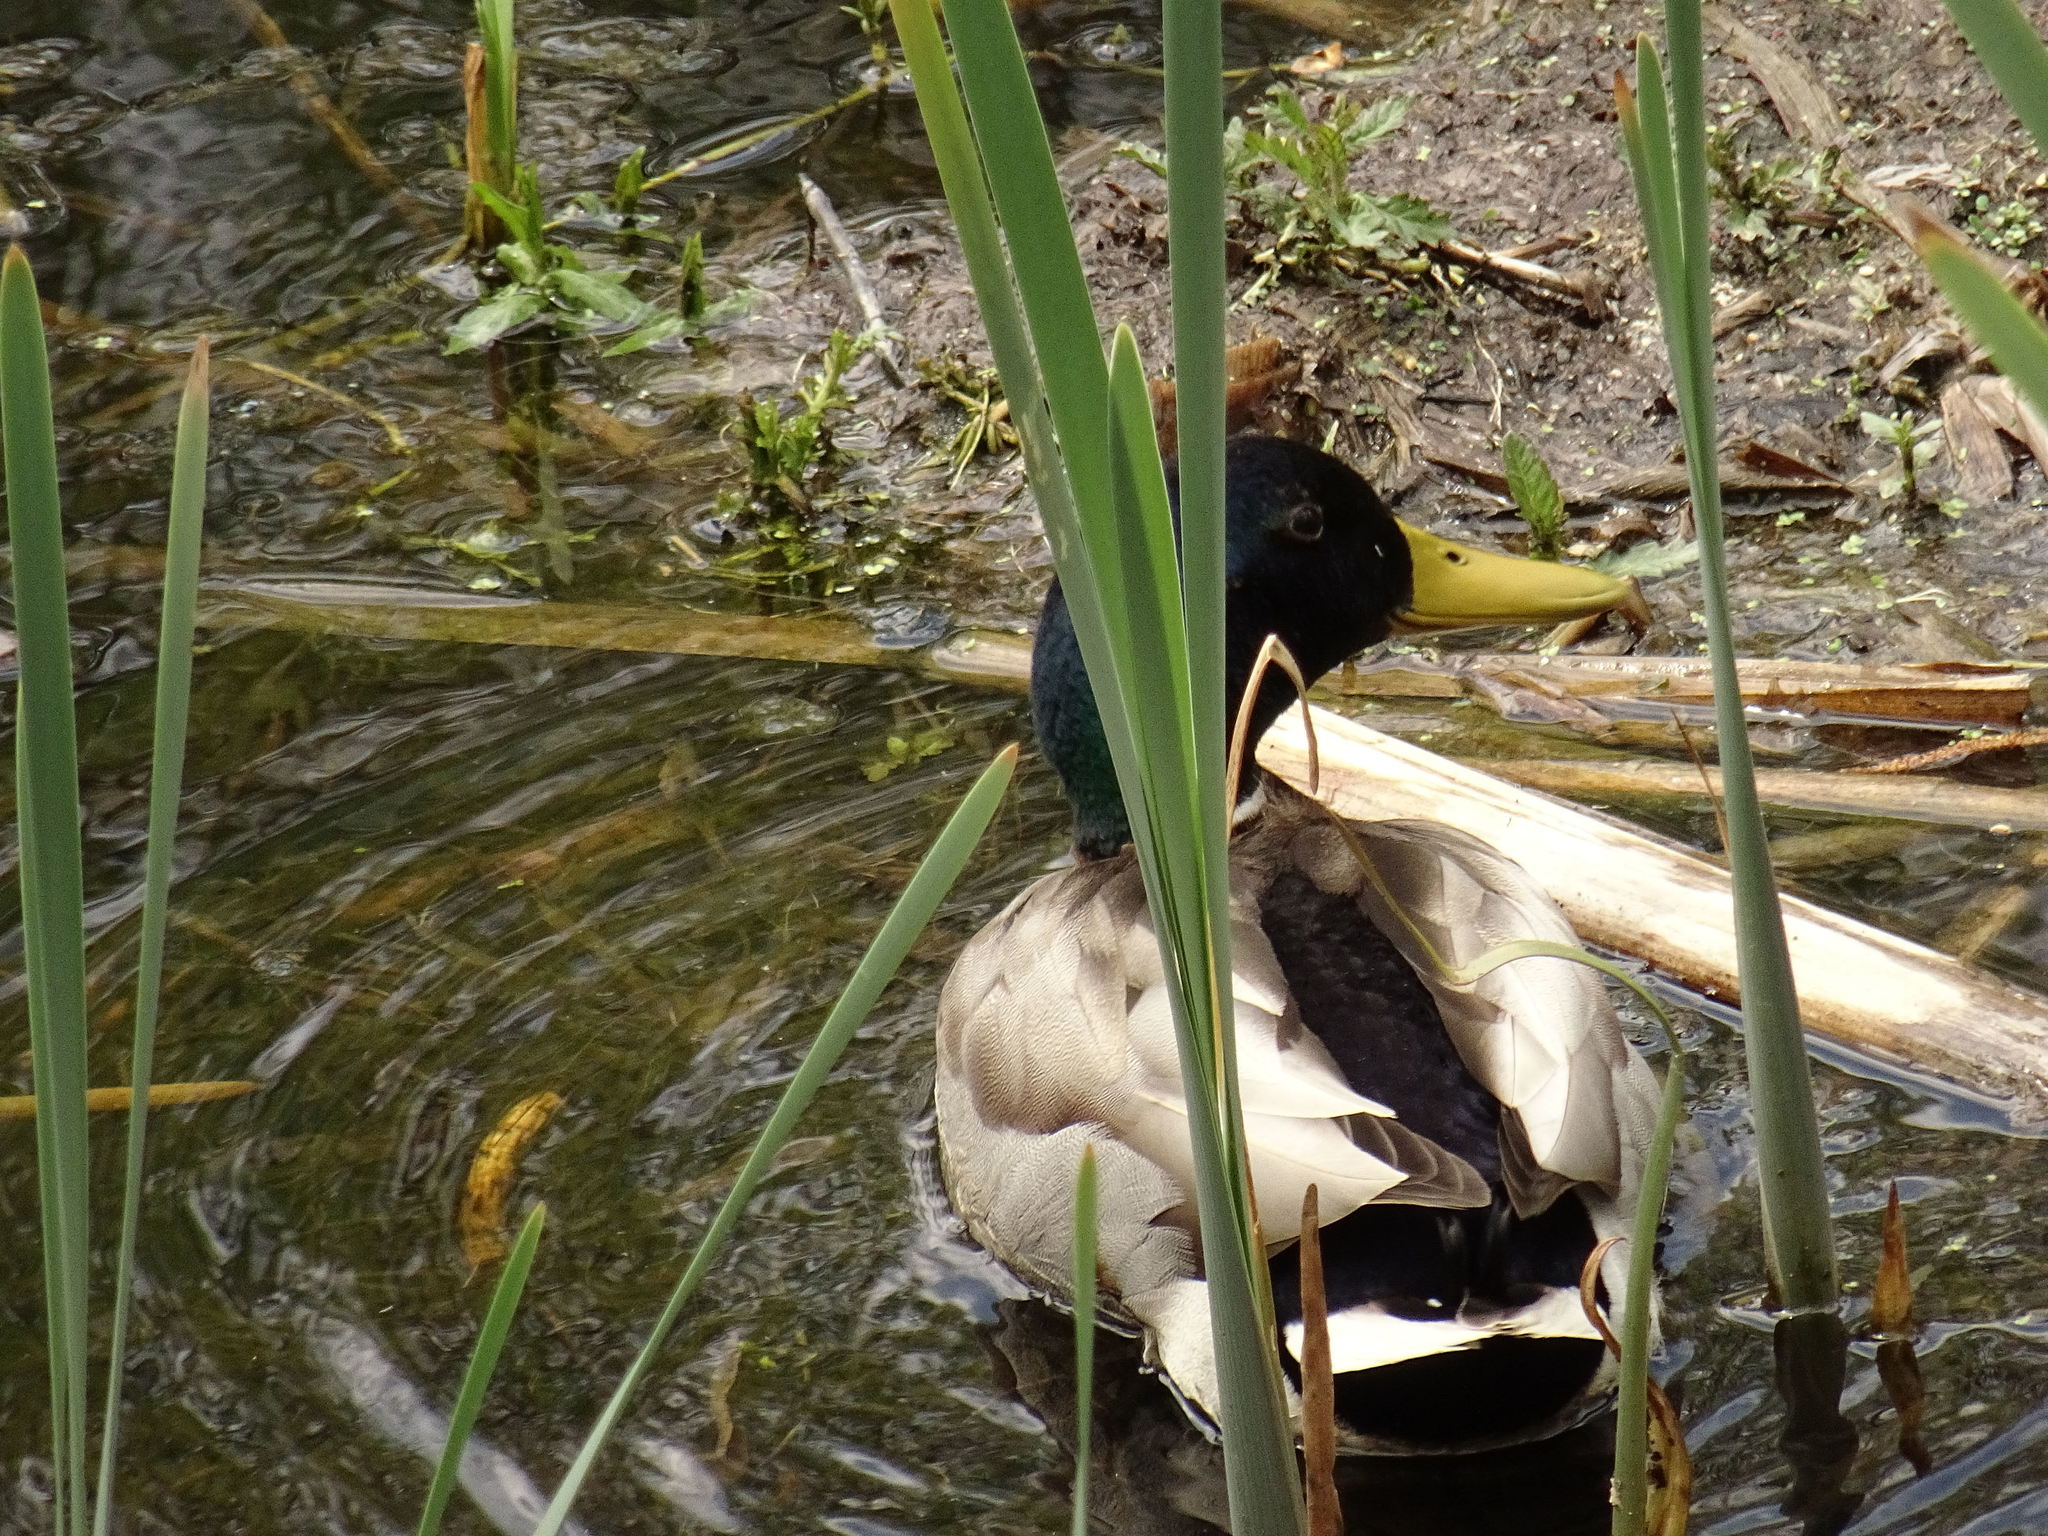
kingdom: Animalia
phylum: Chordata
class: Aves
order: Anseriformes
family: Anatidae
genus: Anas
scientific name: Anas platyrhynchos
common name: Mallard
